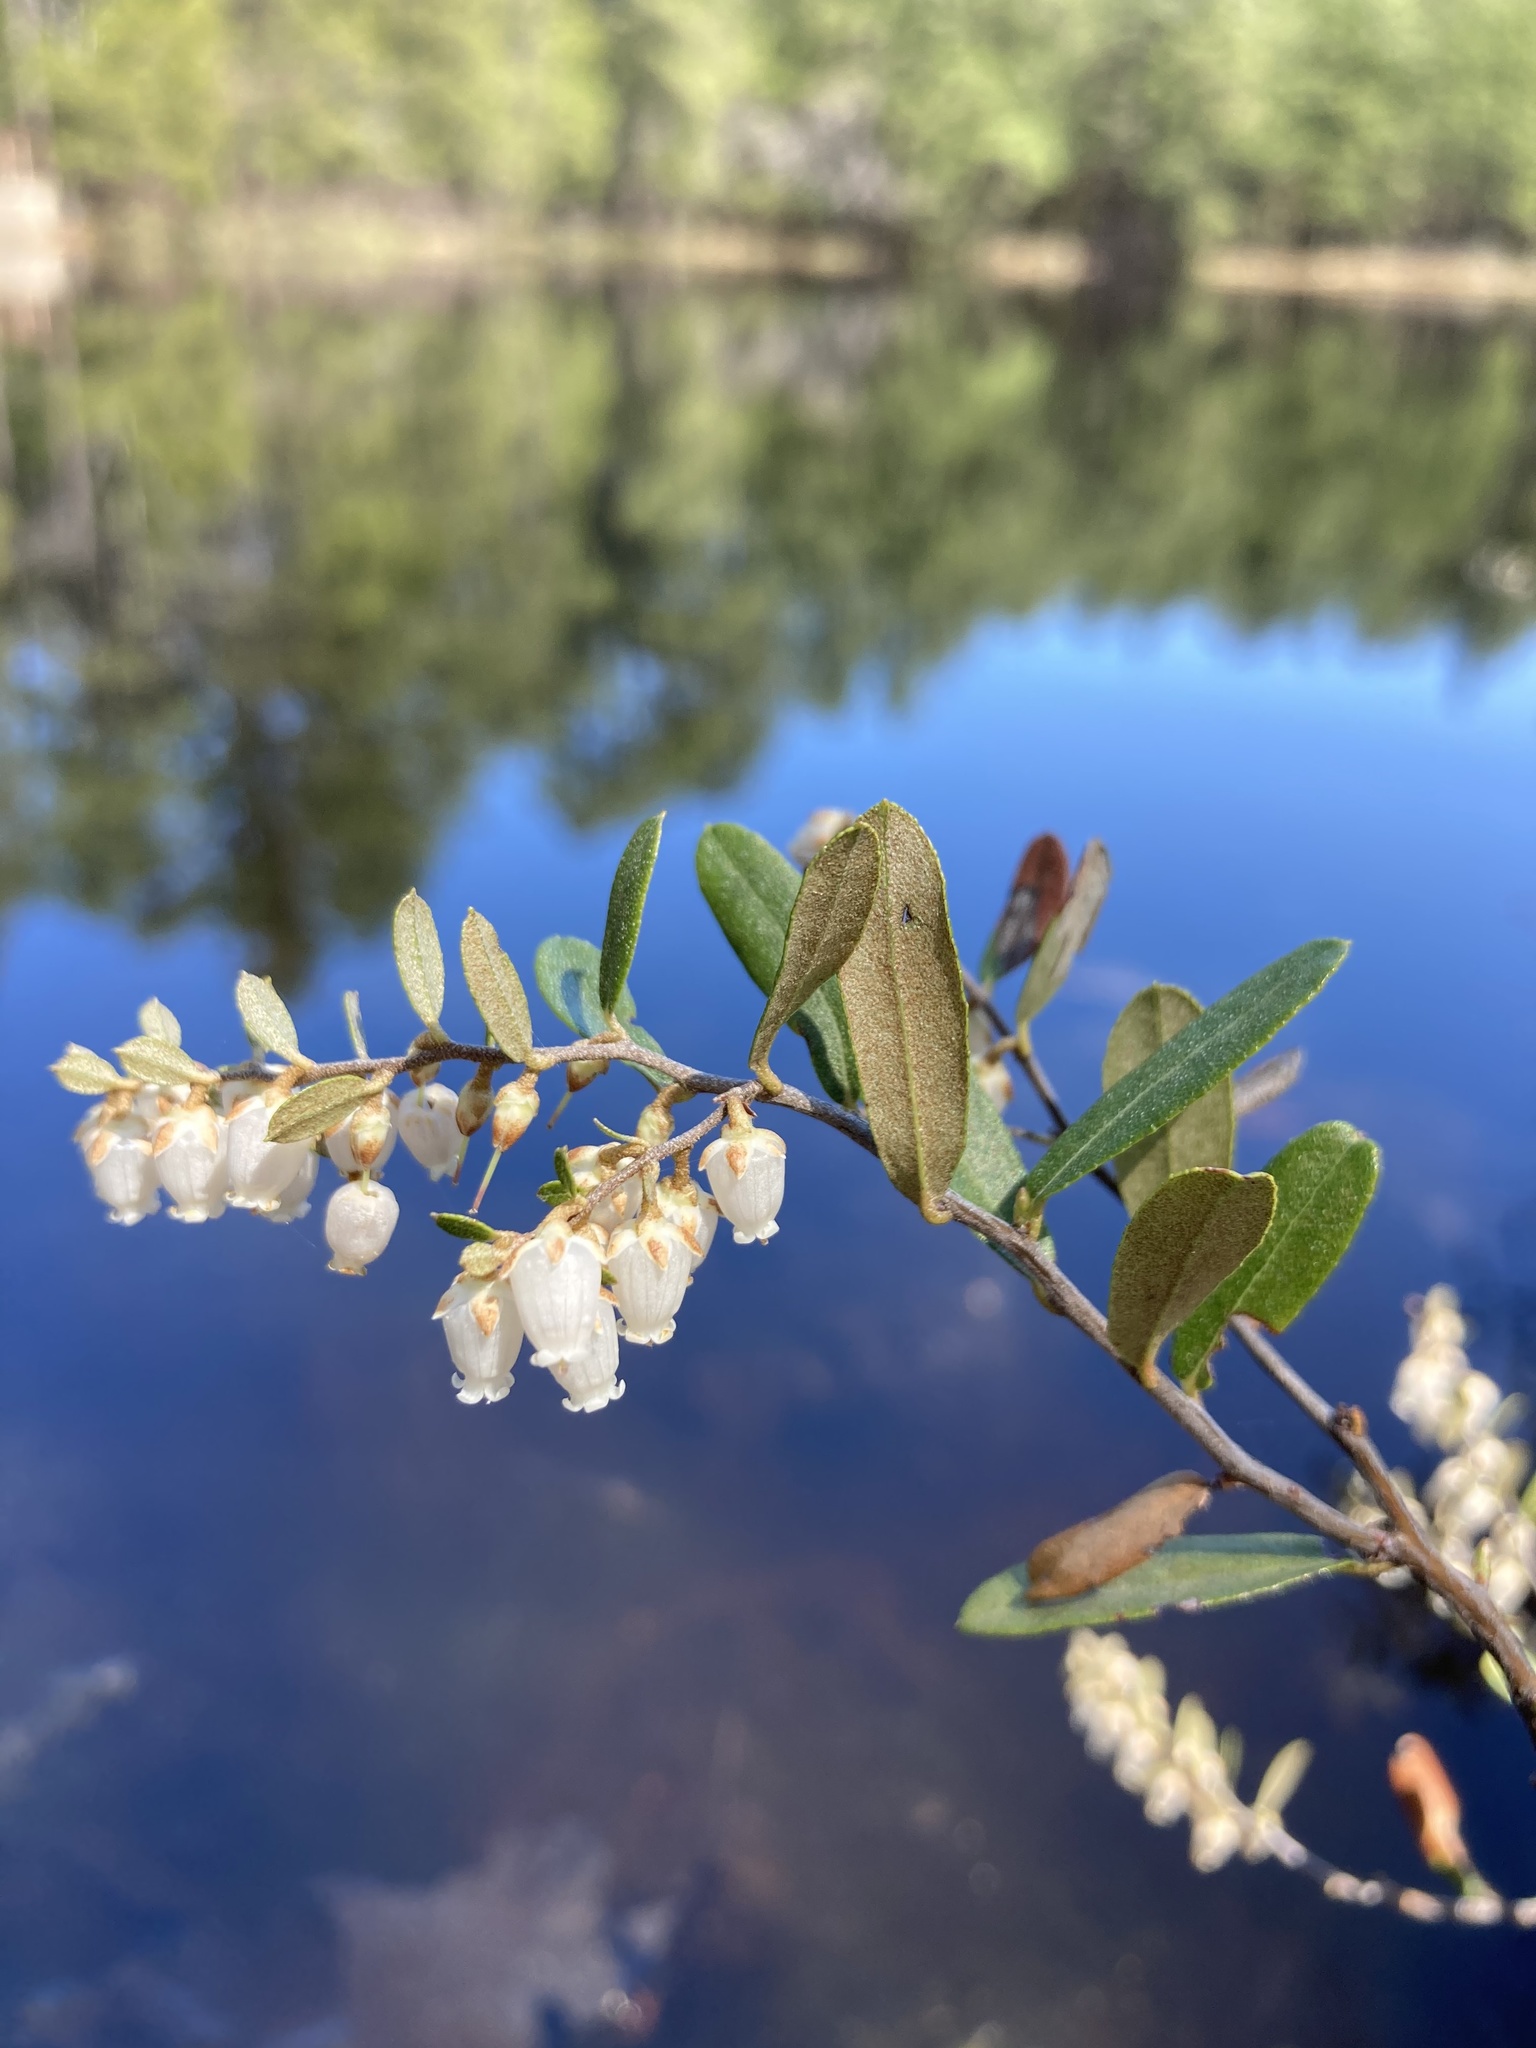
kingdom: Plantae
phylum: Tracheophyta
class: Magnoliopsida
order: Ericales
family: Ericaceae
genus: Chamaedaphne
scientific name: Chamaedaphne calyculata
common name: Leatherleaf
